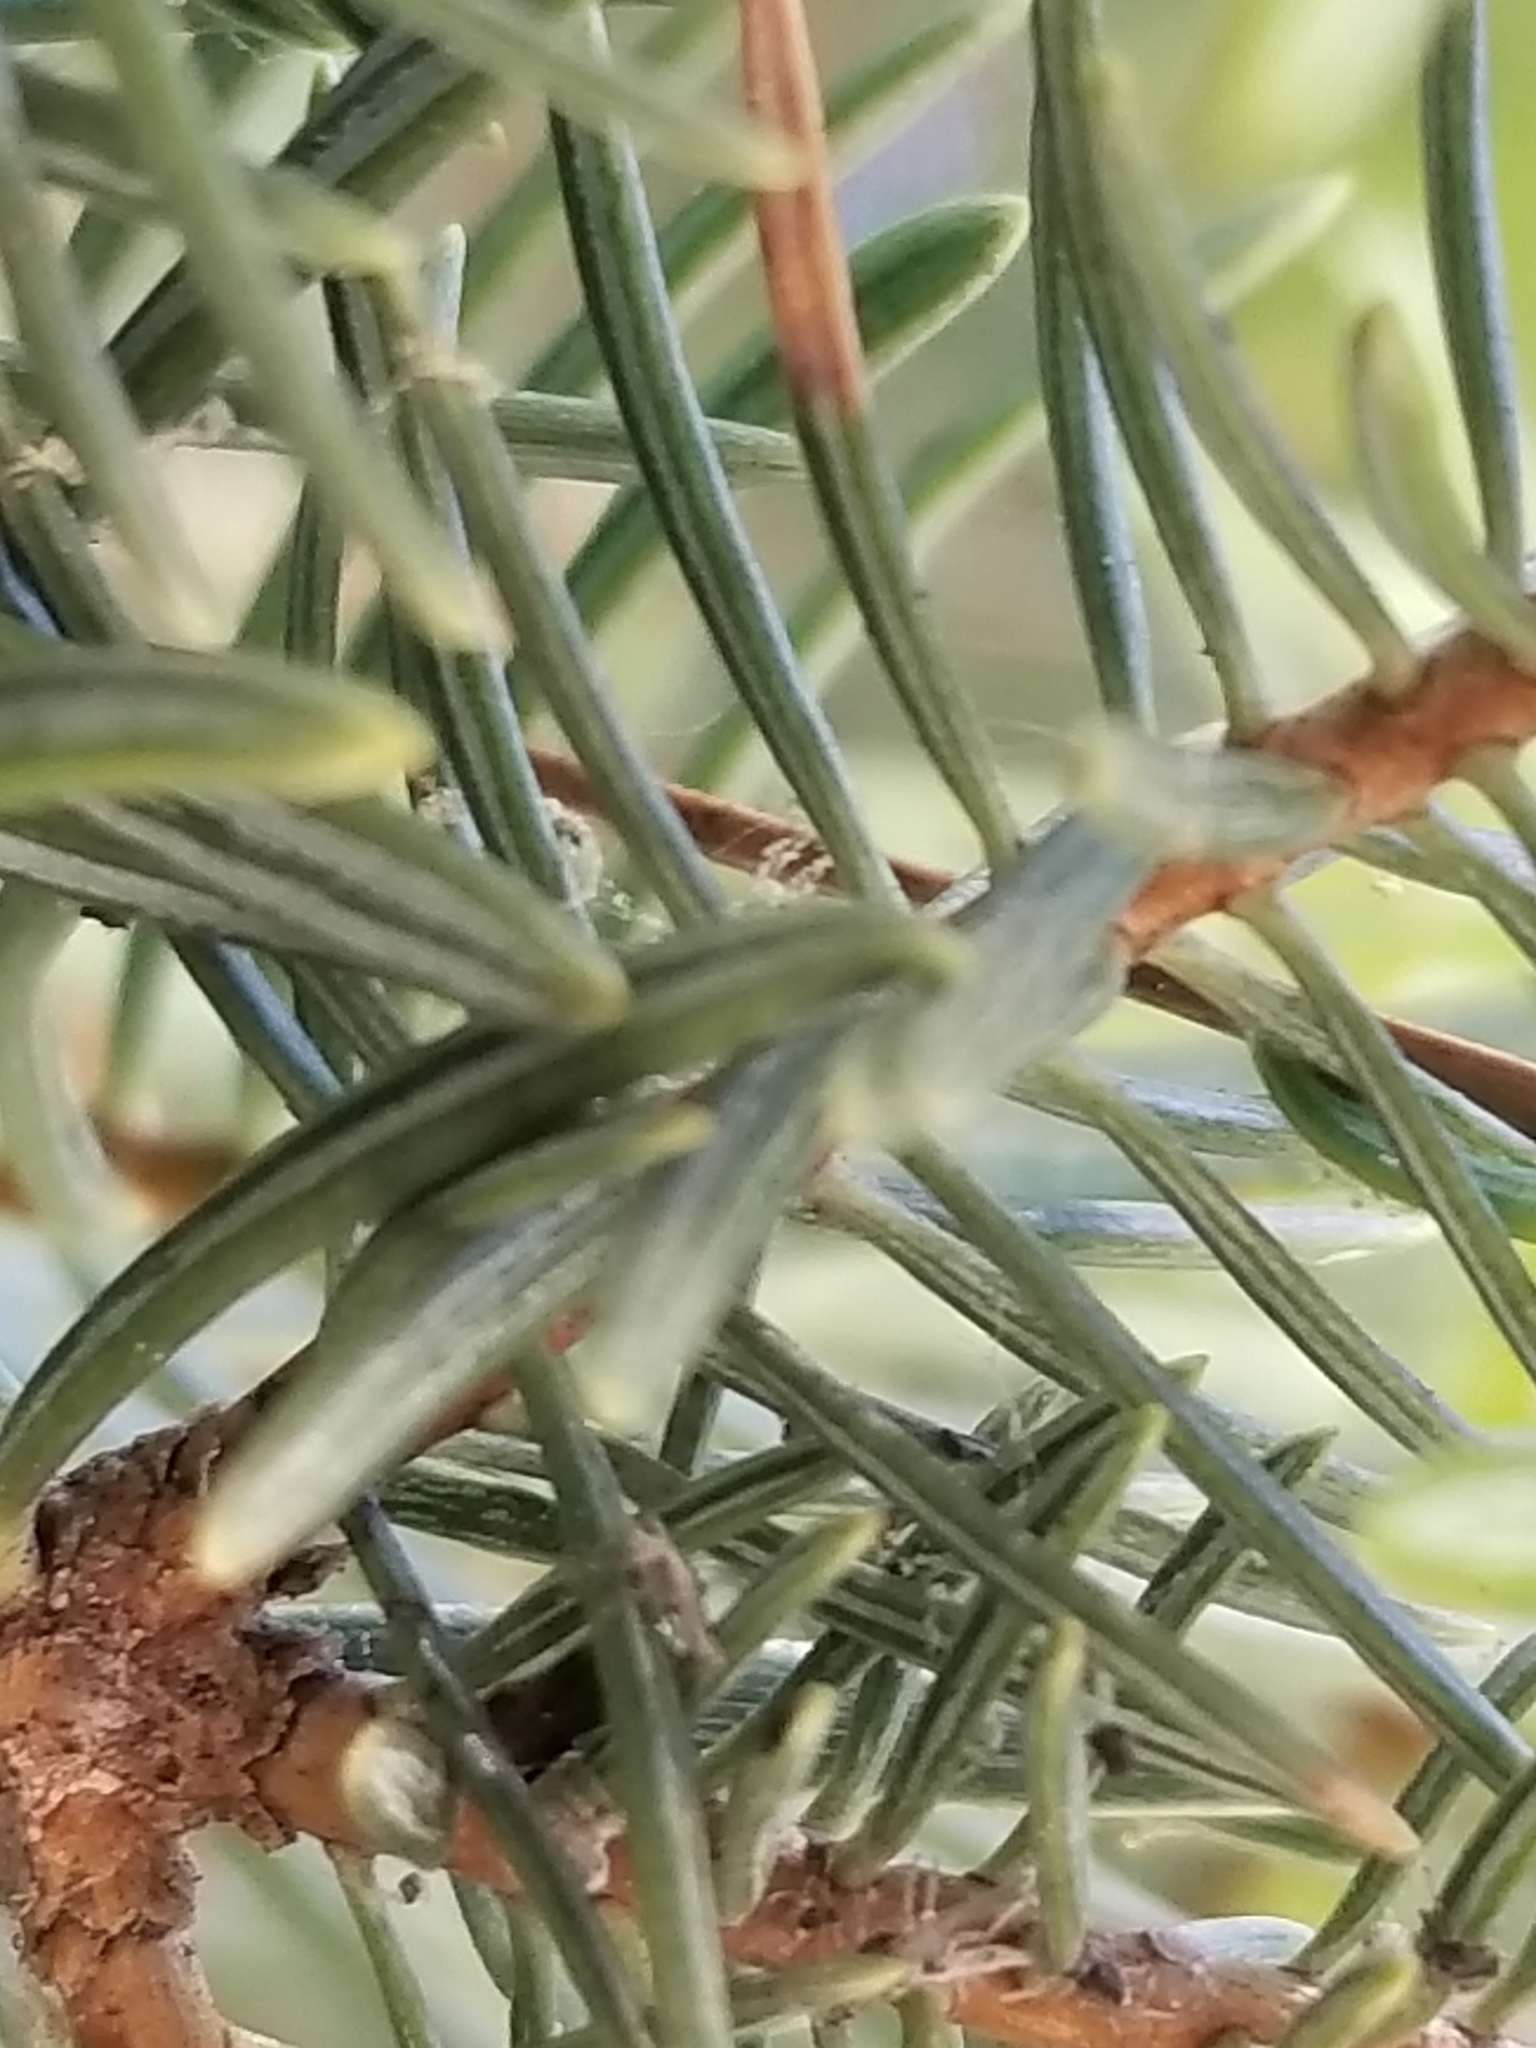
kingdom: Plantae
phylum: Tracheophyta
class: Pinopsida
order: Pinales
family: Pinaceae
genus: Abies
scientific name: Abies concolor
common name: Colorado fir
